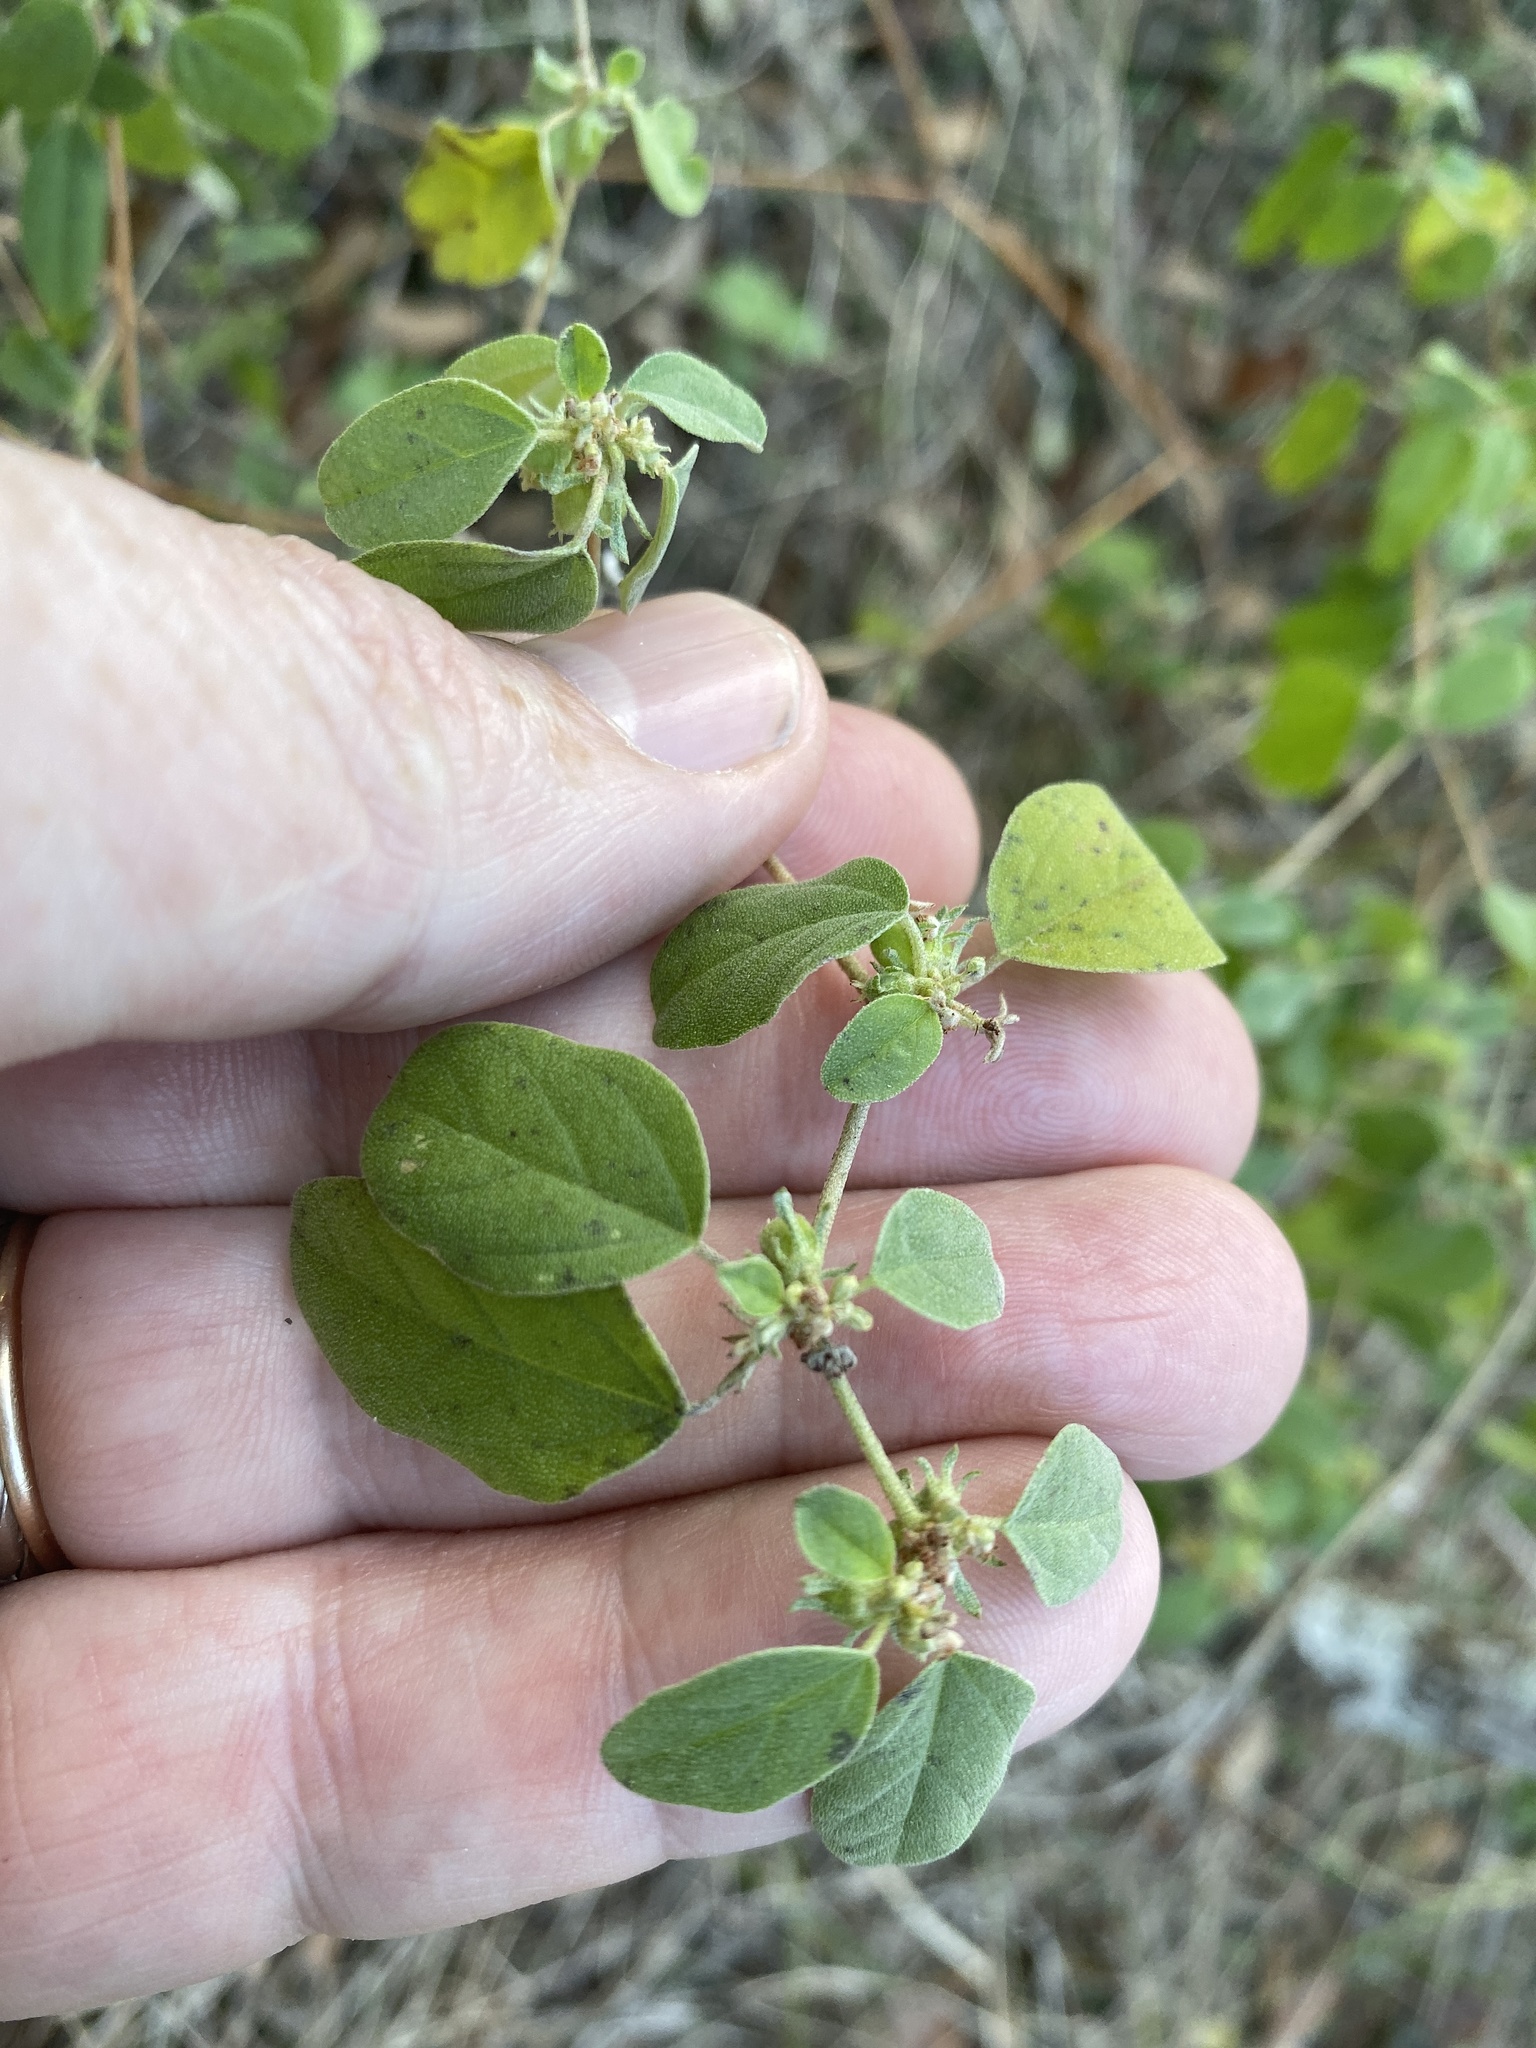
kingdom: Plantae
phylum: Tracheophyta
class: Magnoliopsida
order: Malpighiales
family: Euphorbiaceae
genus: Croton
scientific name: Croton monanthogynus
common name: One-seed croton
